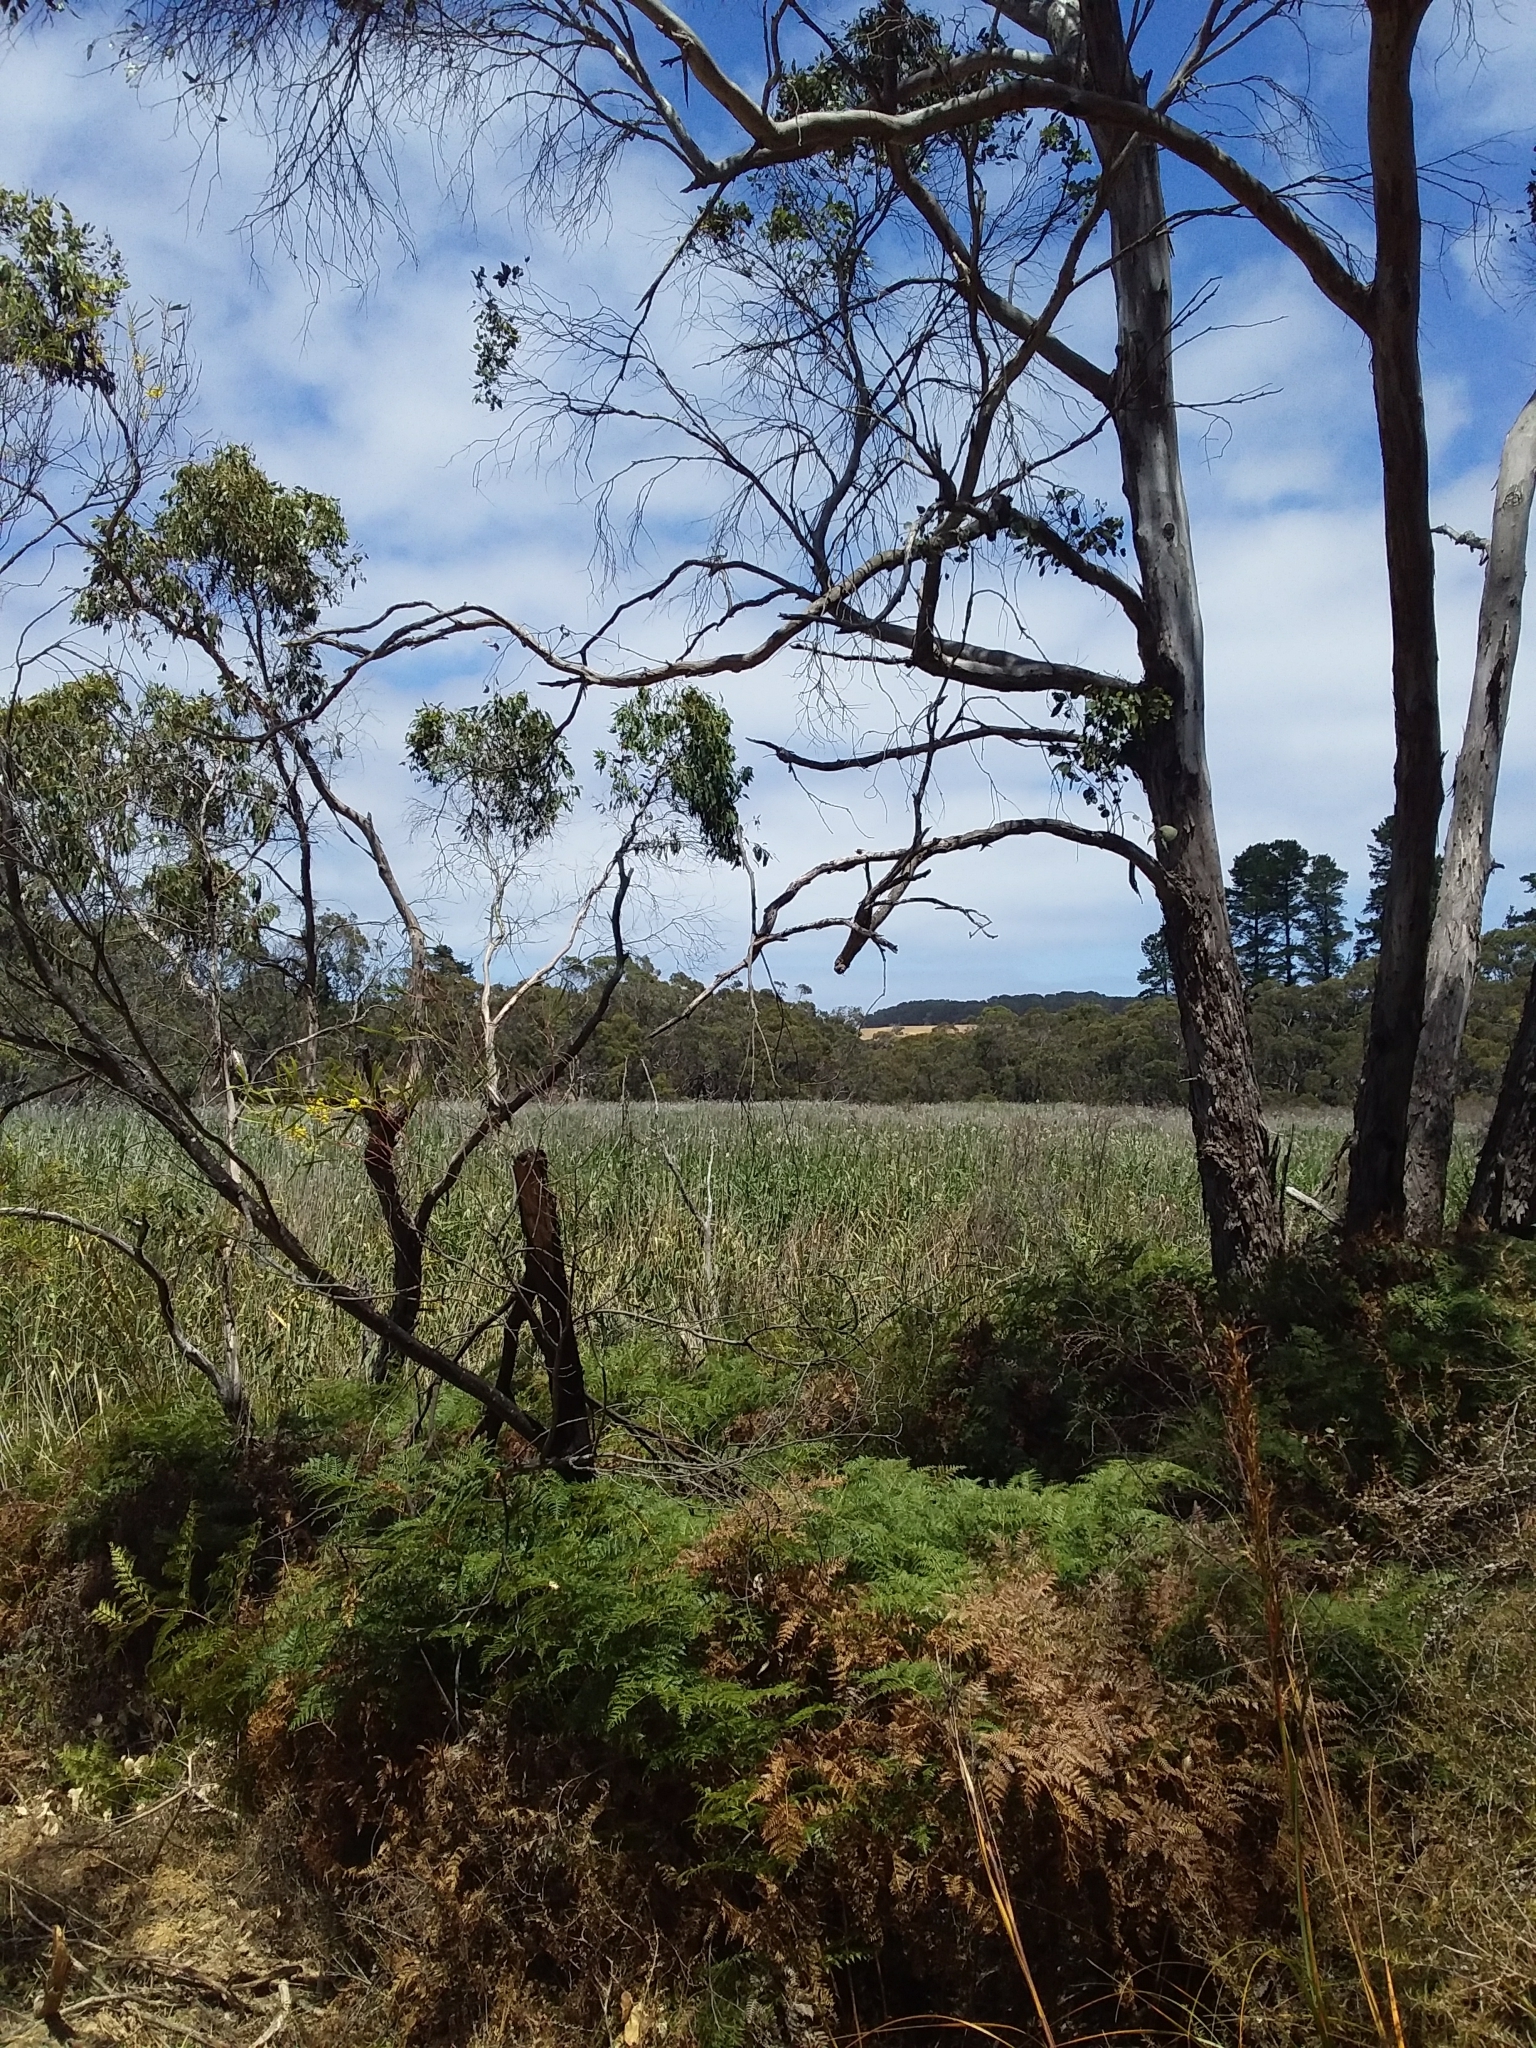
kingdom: Plantae
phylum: Tracheophyta
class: Liliopsida
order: Poales
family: Poaceae
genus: Phragmites
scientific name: Phragmites australis
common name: Common reed
